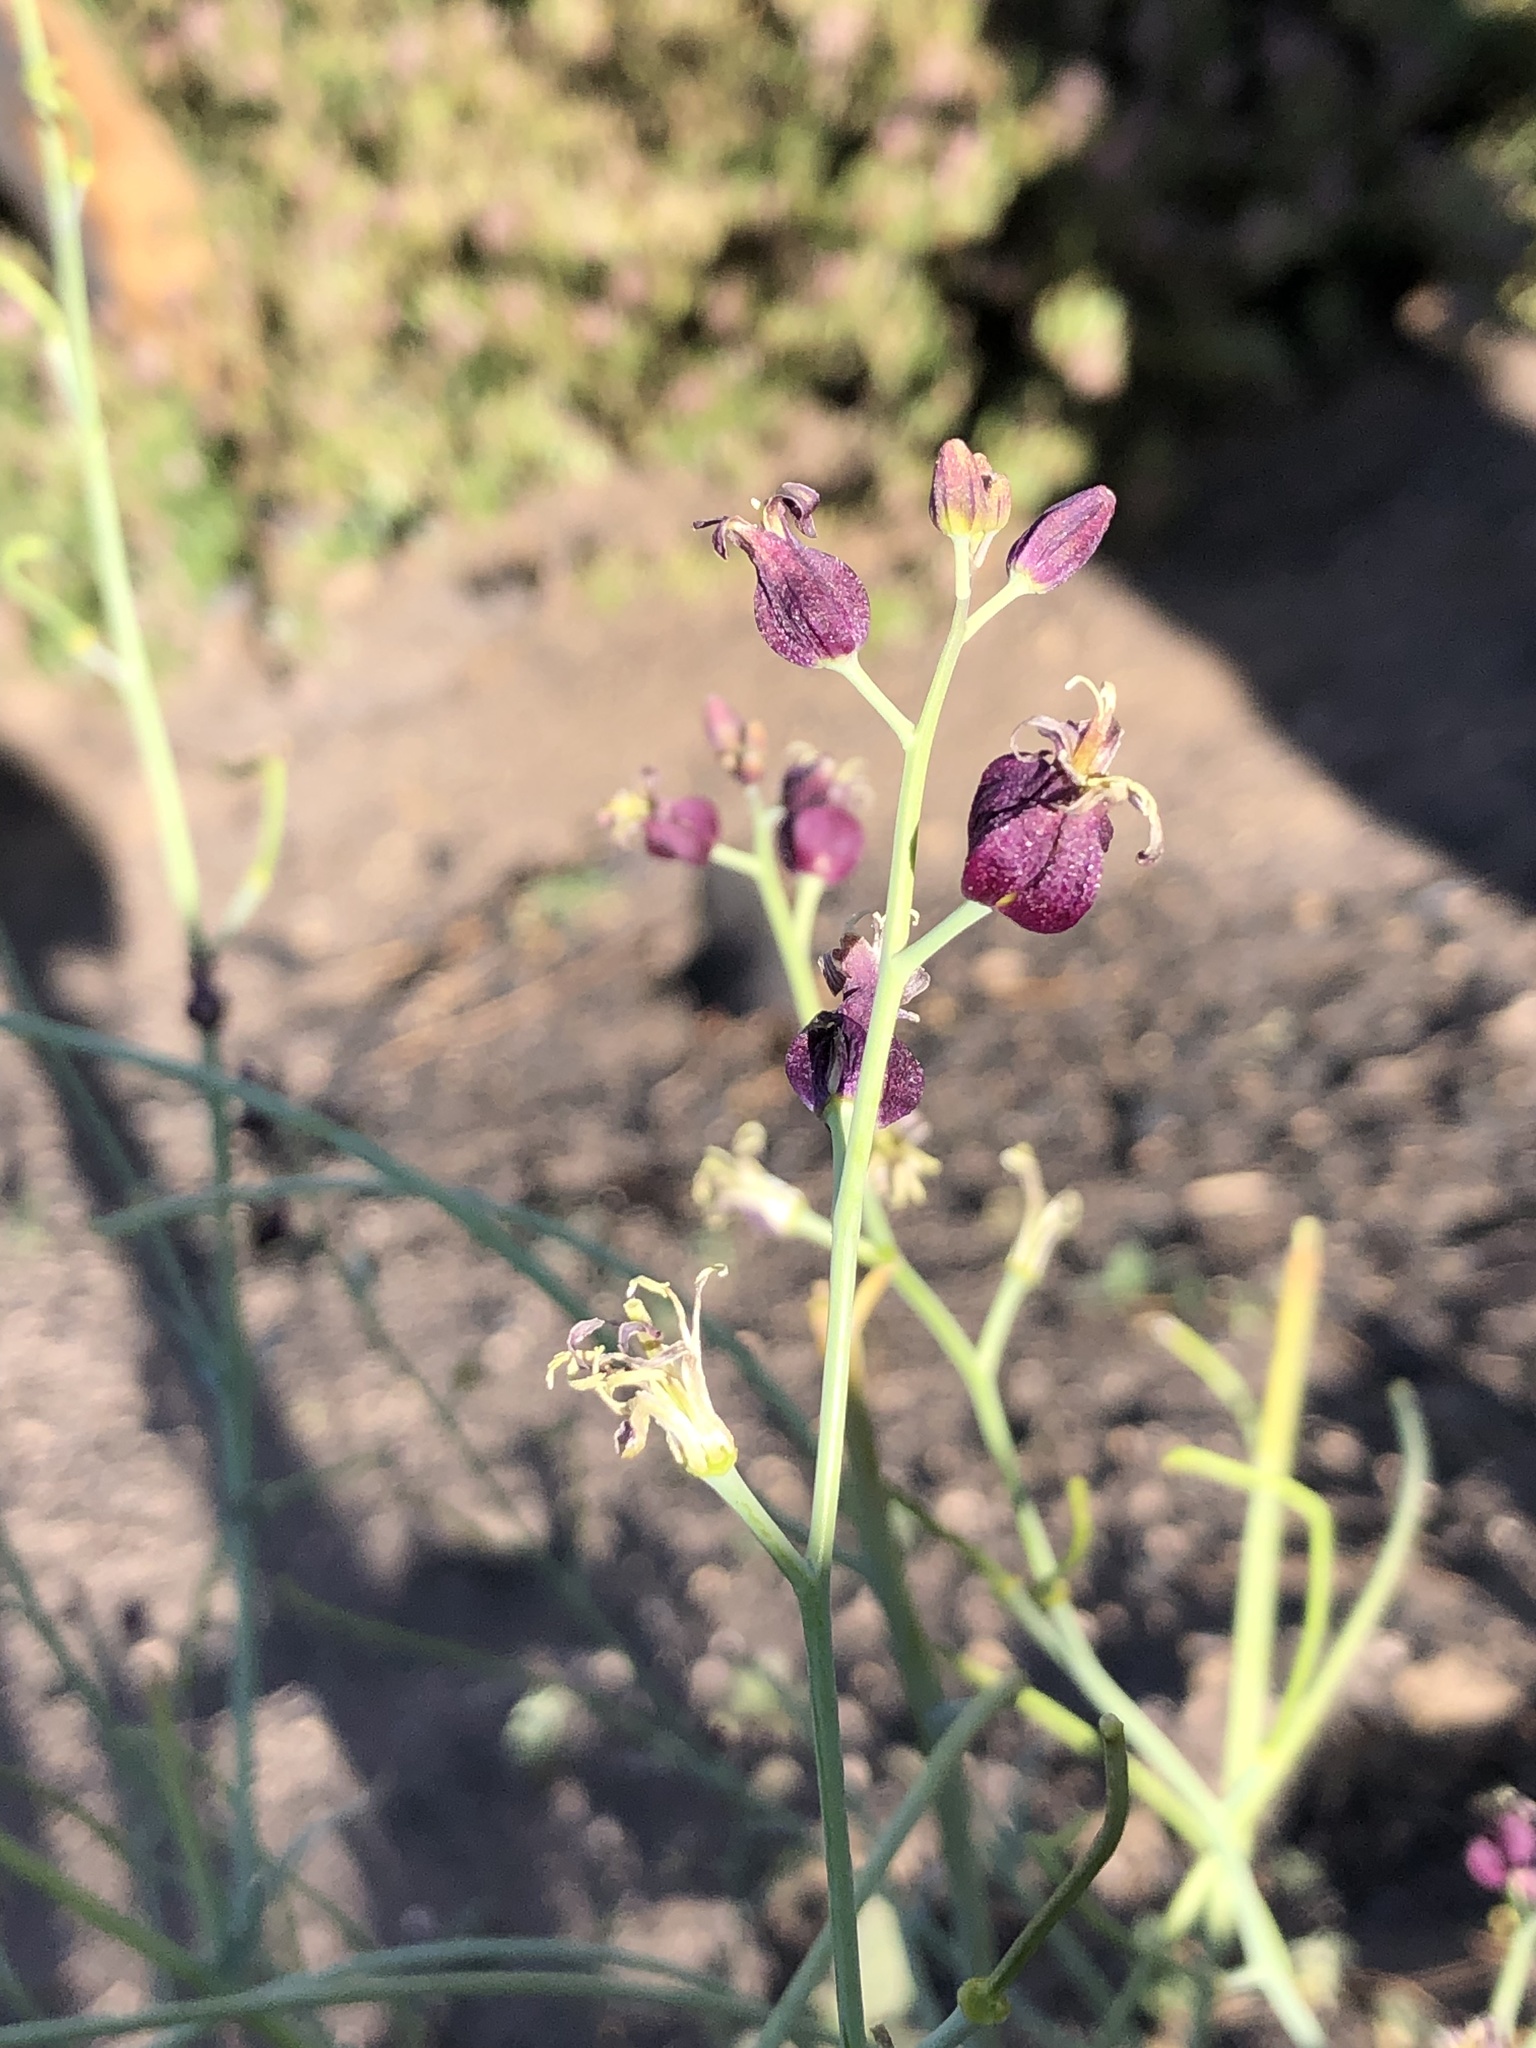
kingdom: Plantae
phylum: Tracheophyta
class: Magnoliopsida
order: Brassicales
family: Brassicaceae
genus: Streptanthus
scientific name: Streptanthus amplexicaulis
